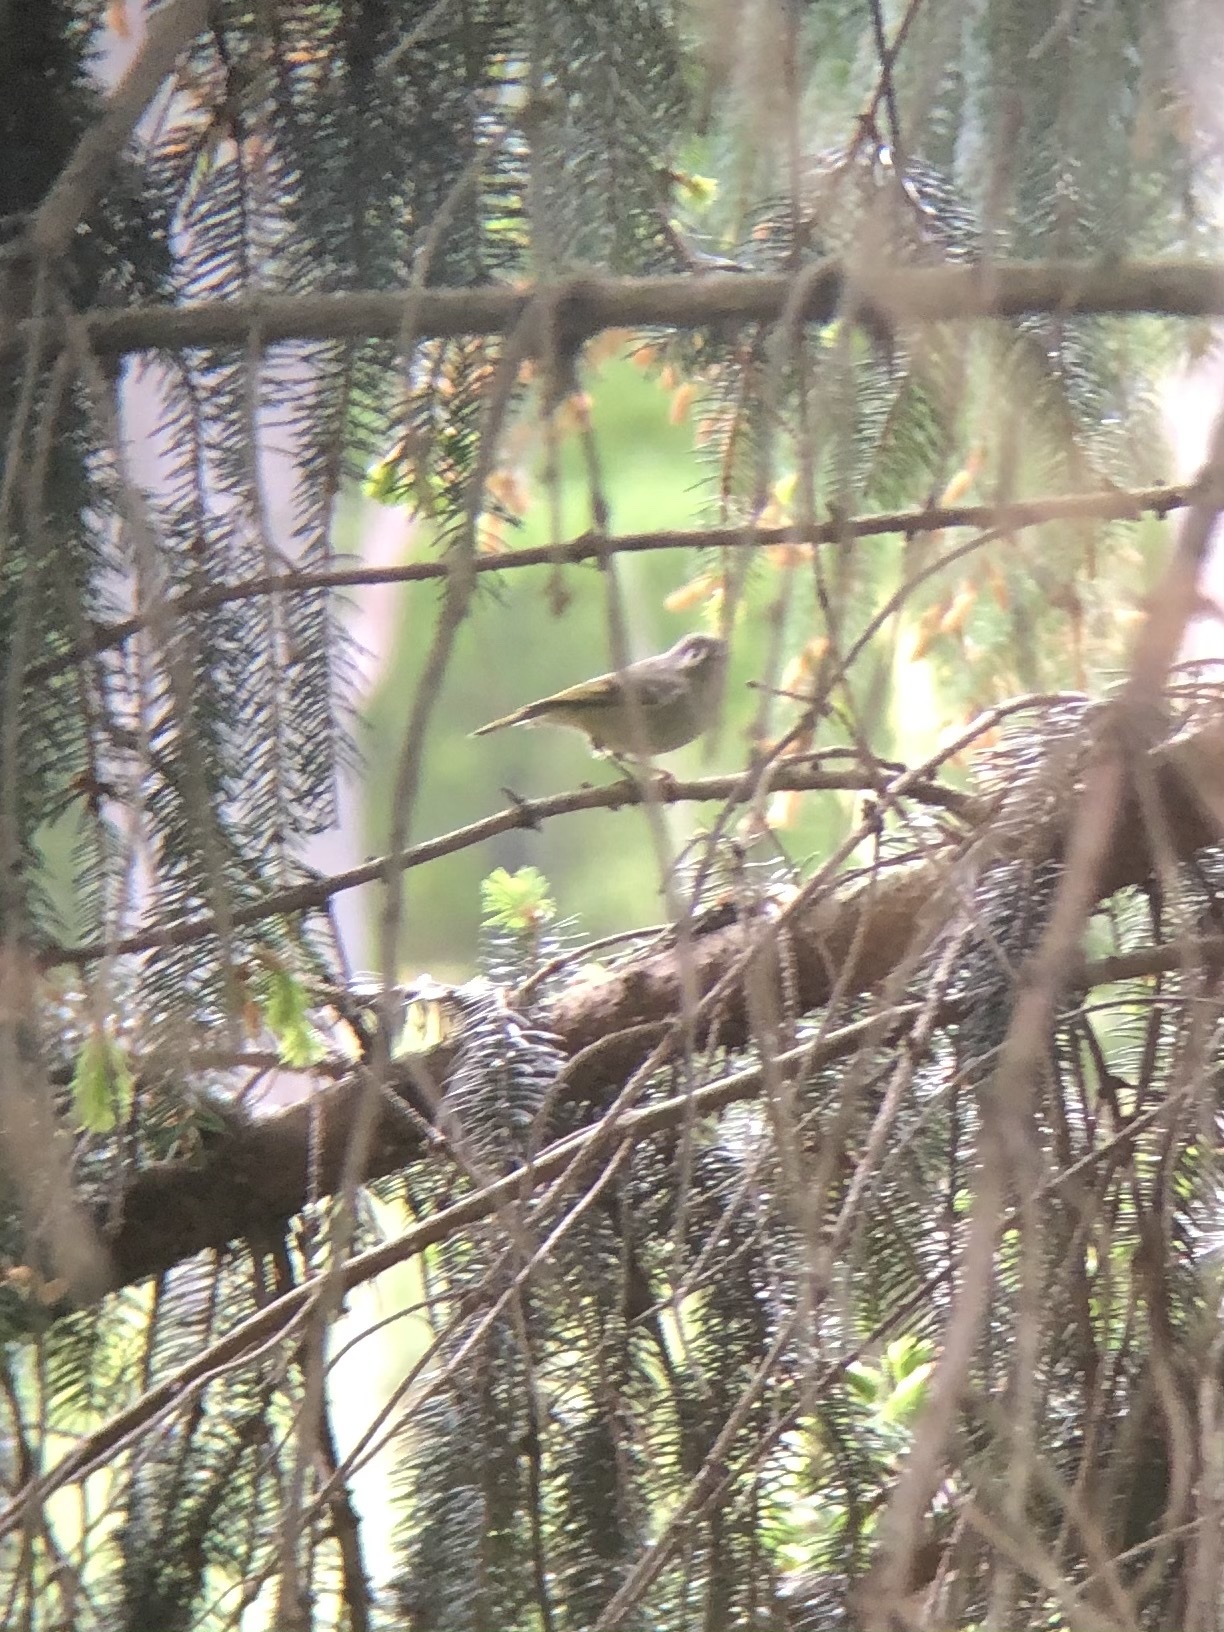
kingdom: Animalia
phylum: Chordata
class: Aves
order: Passeriformes
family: Regulidae
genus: Regulus
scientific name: Regulus calendula
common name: Ruby-crowned kinglet
